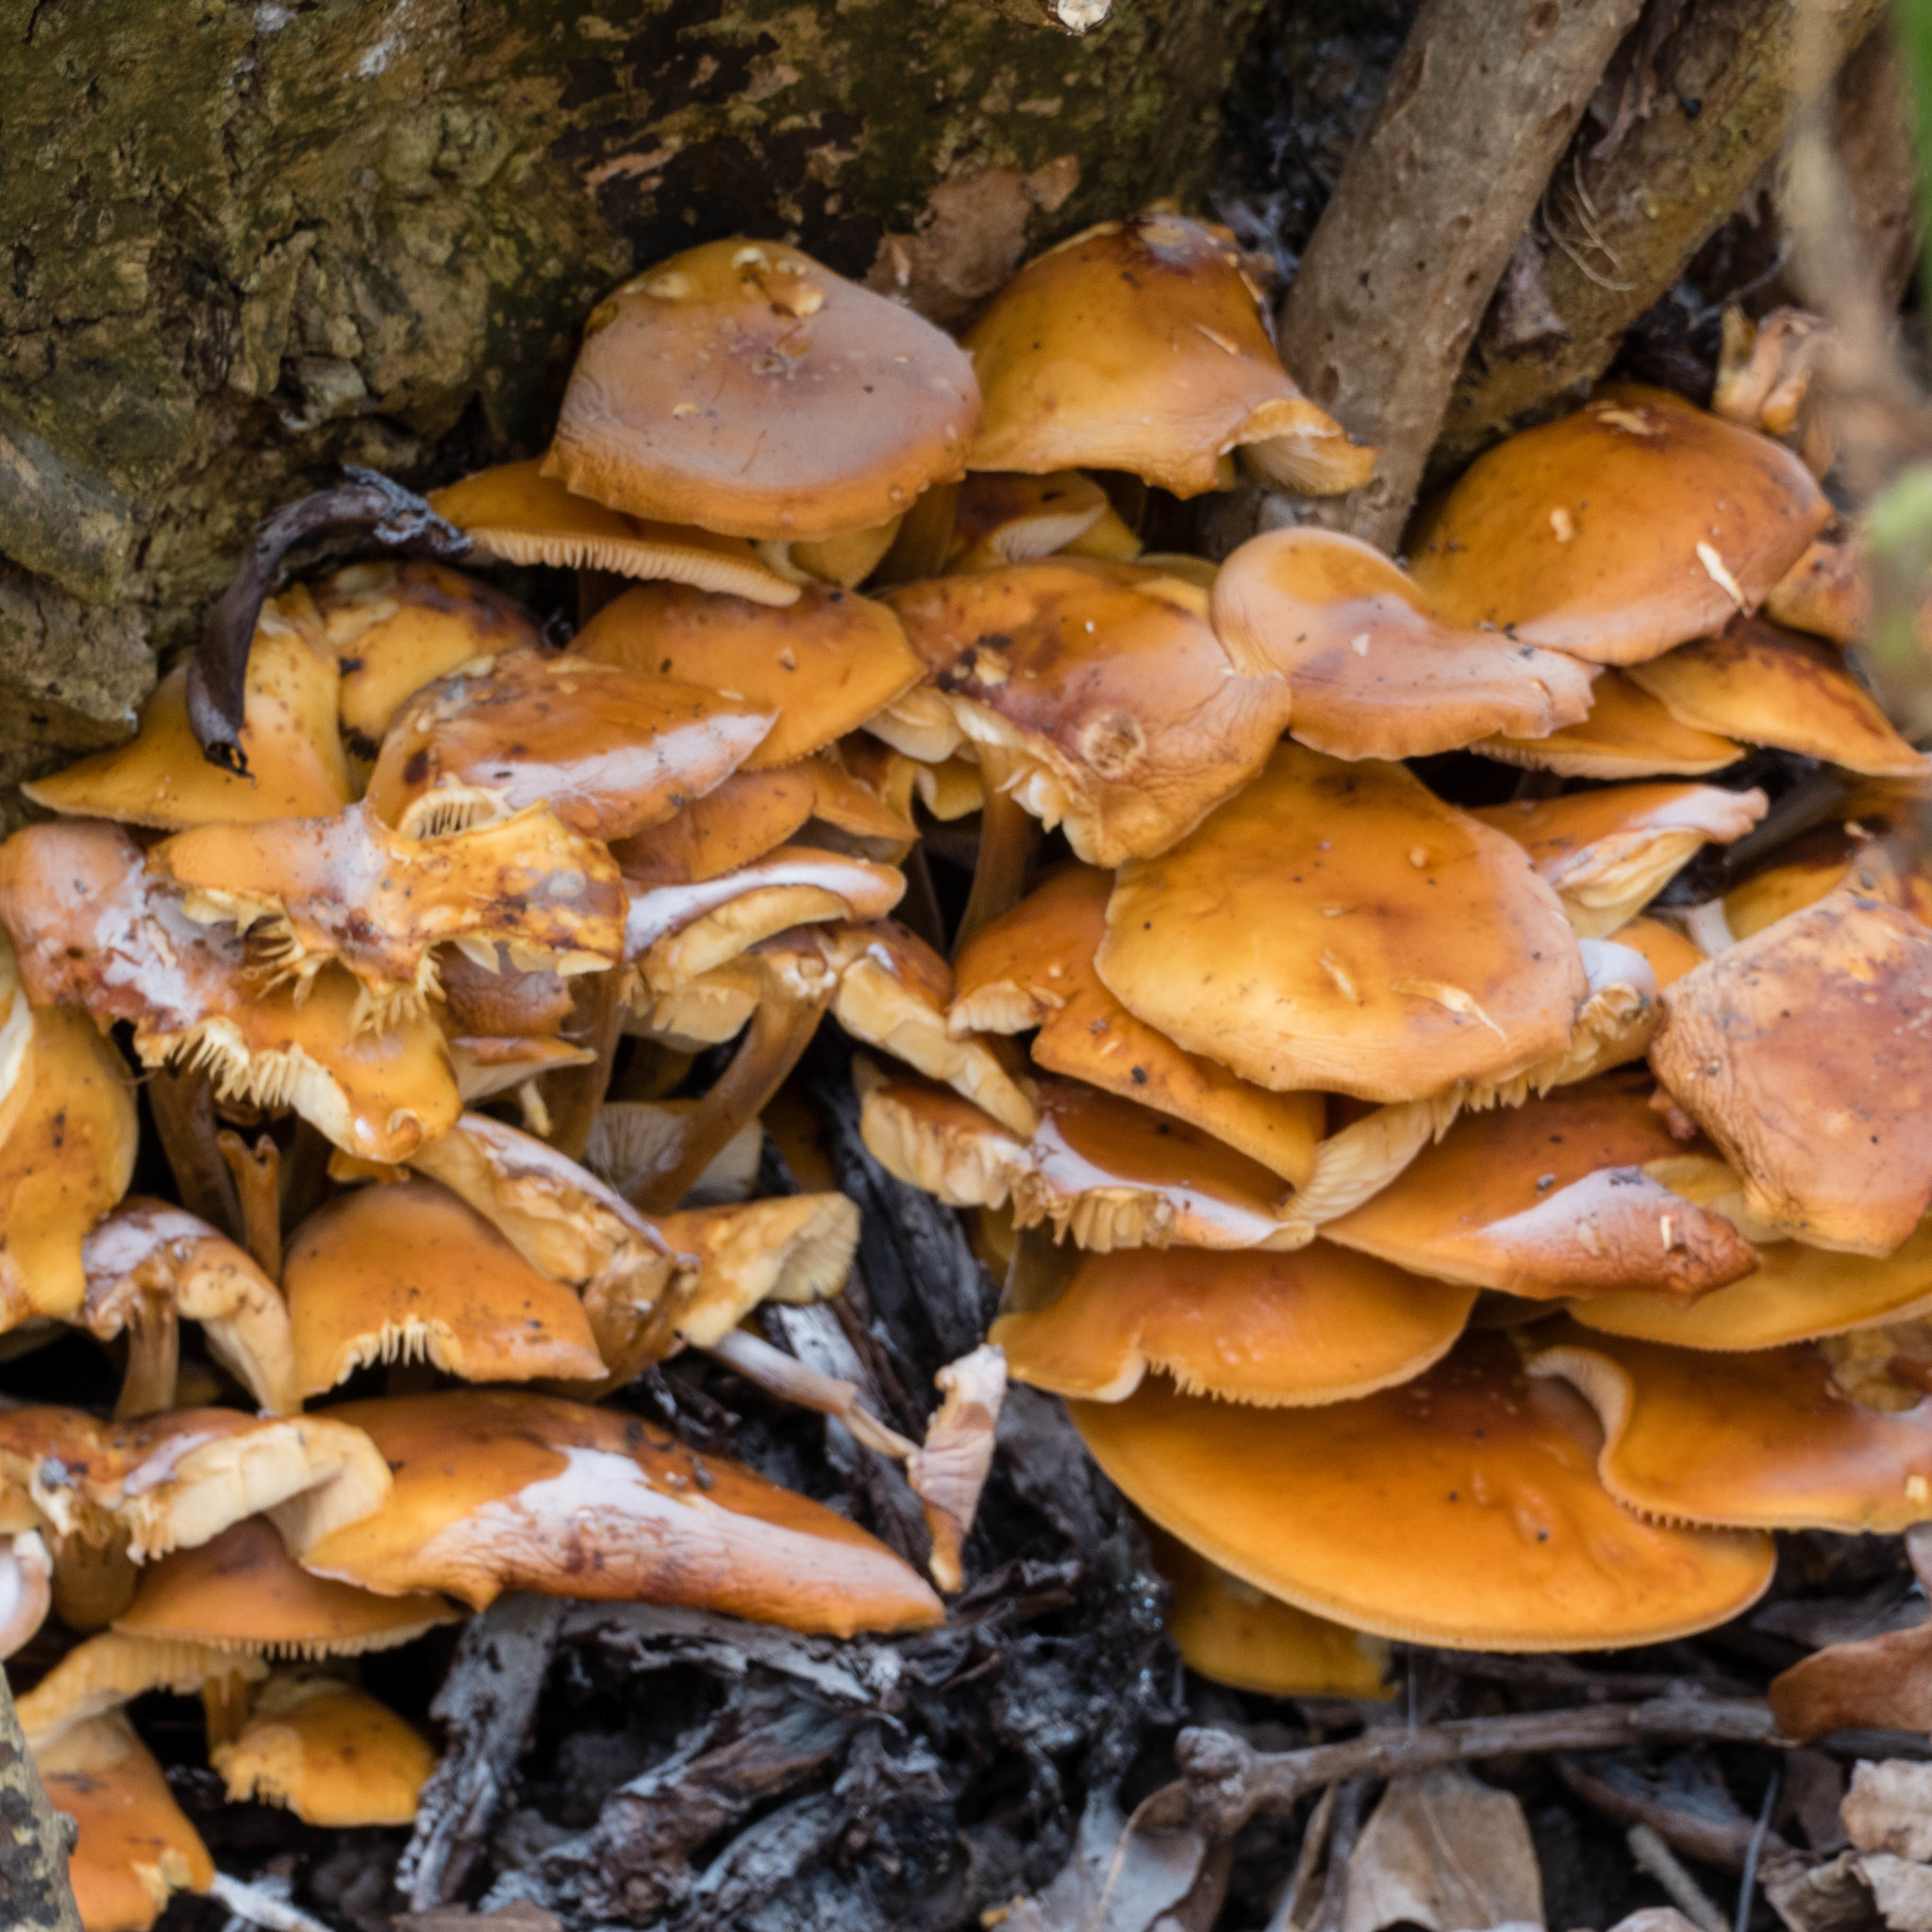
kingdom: Fungi
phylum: Basidiomycota
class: Agaricomycetes
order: Agaricales
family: Physalacriaceae
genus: Flammulina
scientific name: Flammulina
